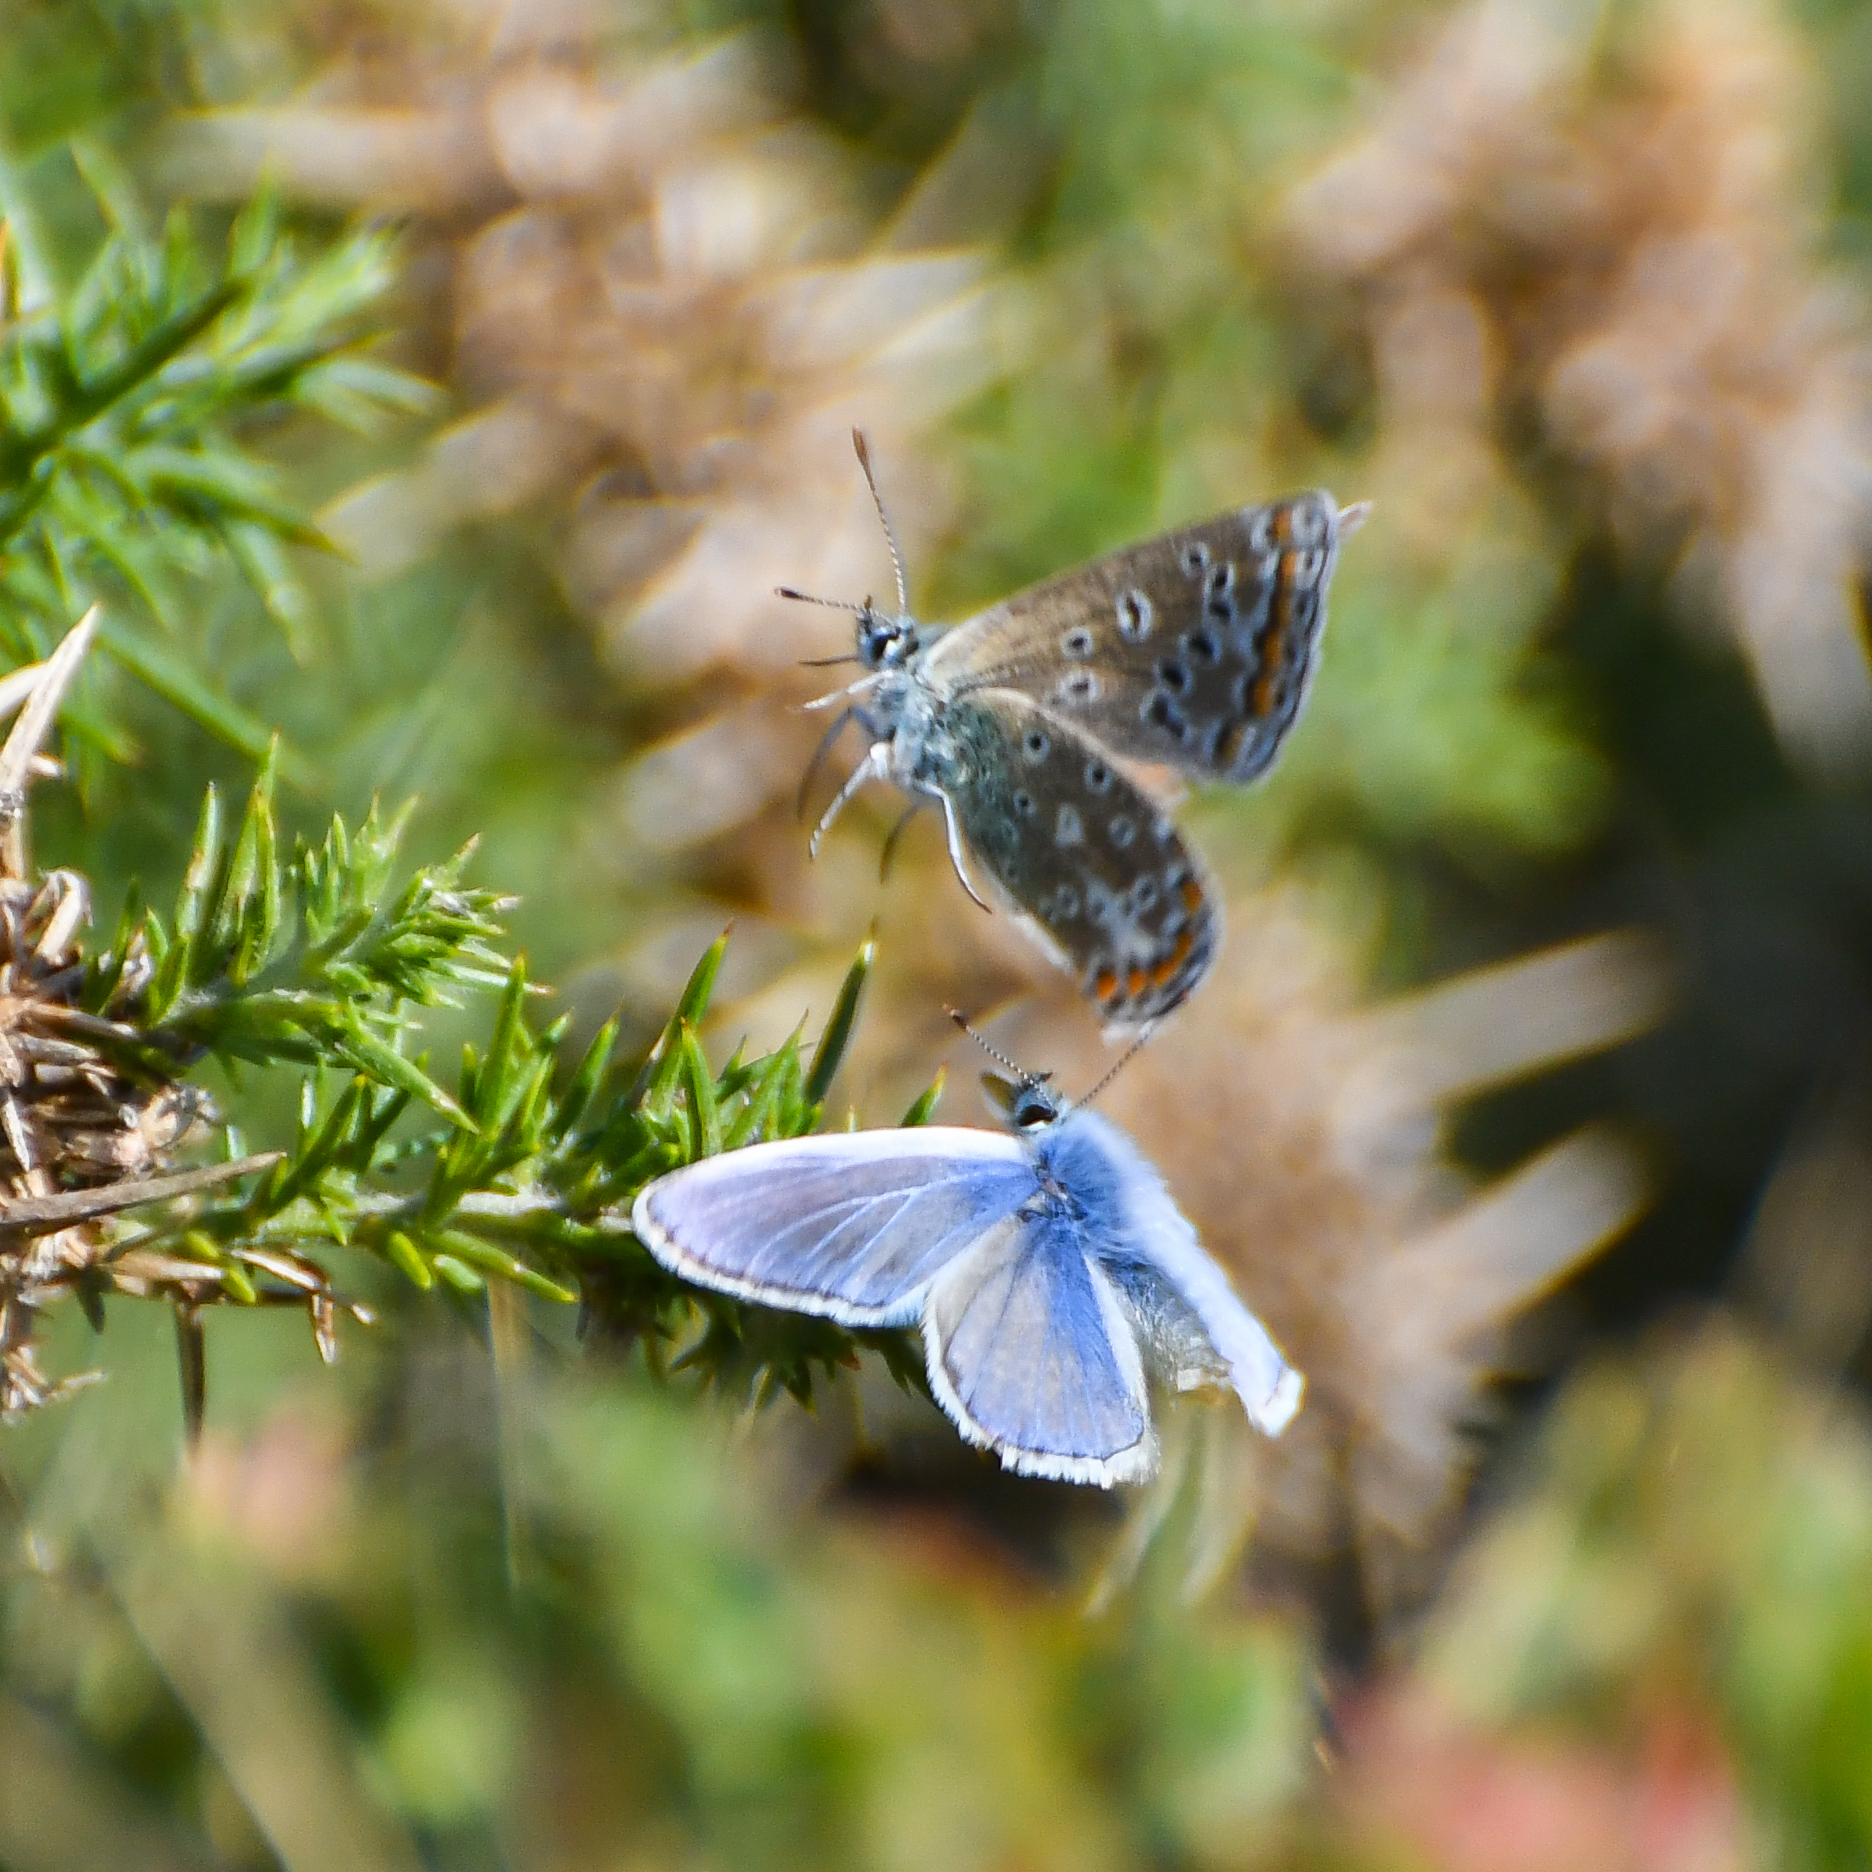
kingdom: Animalia
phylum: Arthropoda
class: Insecta
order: Lepidoptera
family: Lycaenidae
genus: Polyommatus
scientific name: Polyommatus icarus
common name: Common blue
